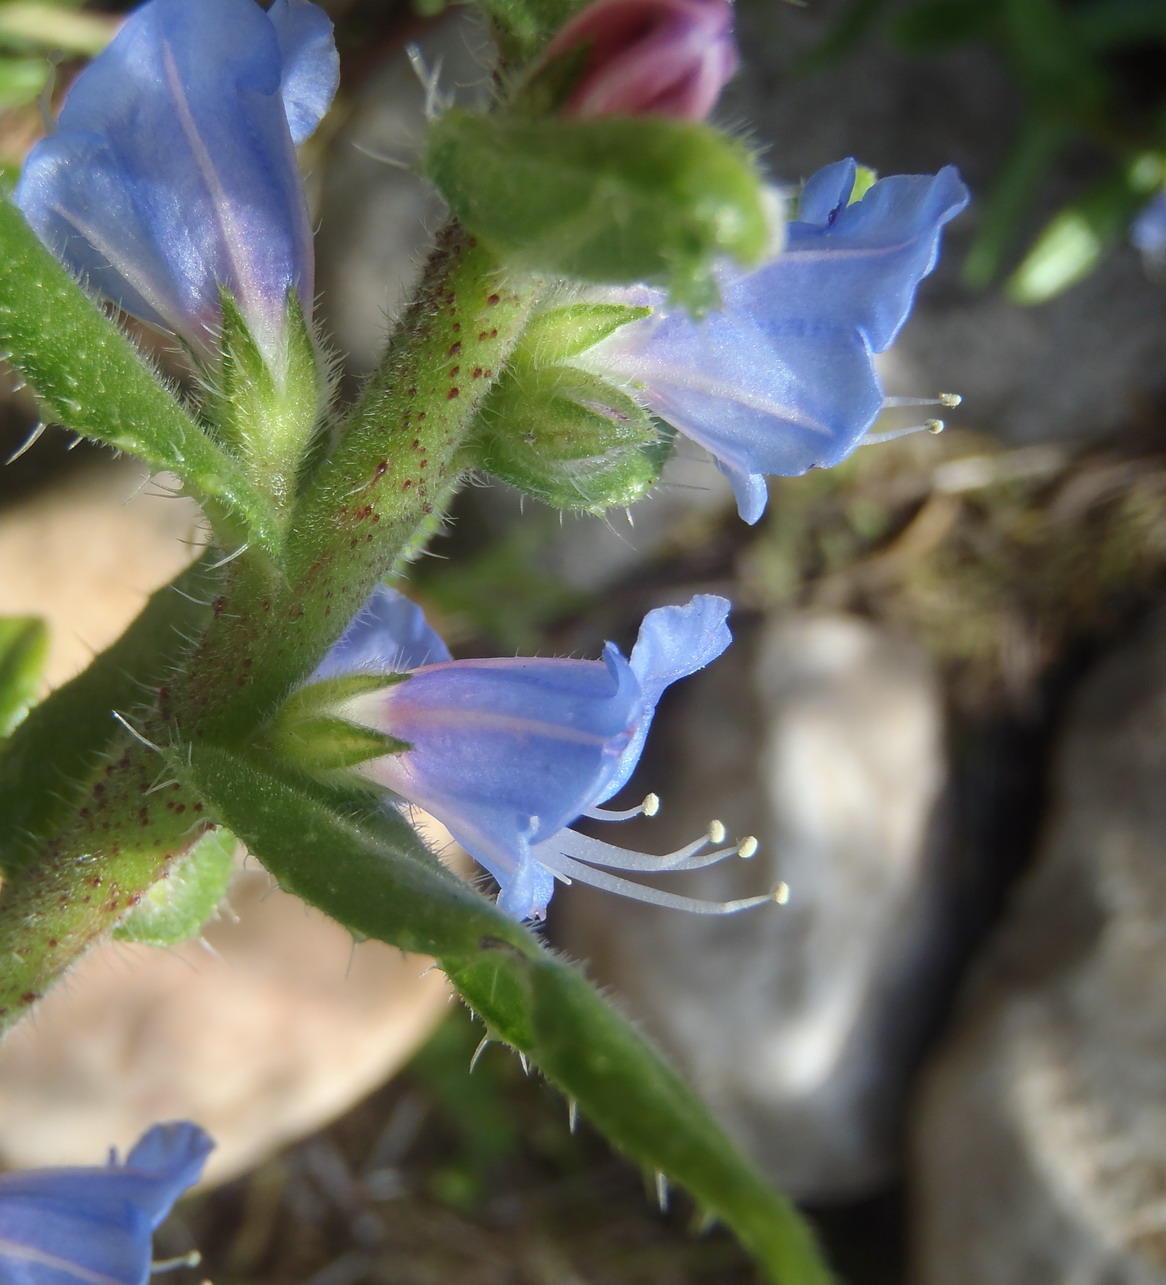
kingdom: Plantae
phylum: Tracheophyta
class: Magnoliopsida
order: Boraginales
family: Boraginaceae
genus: Lobostemon
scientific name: Lobostemon stachydeus
